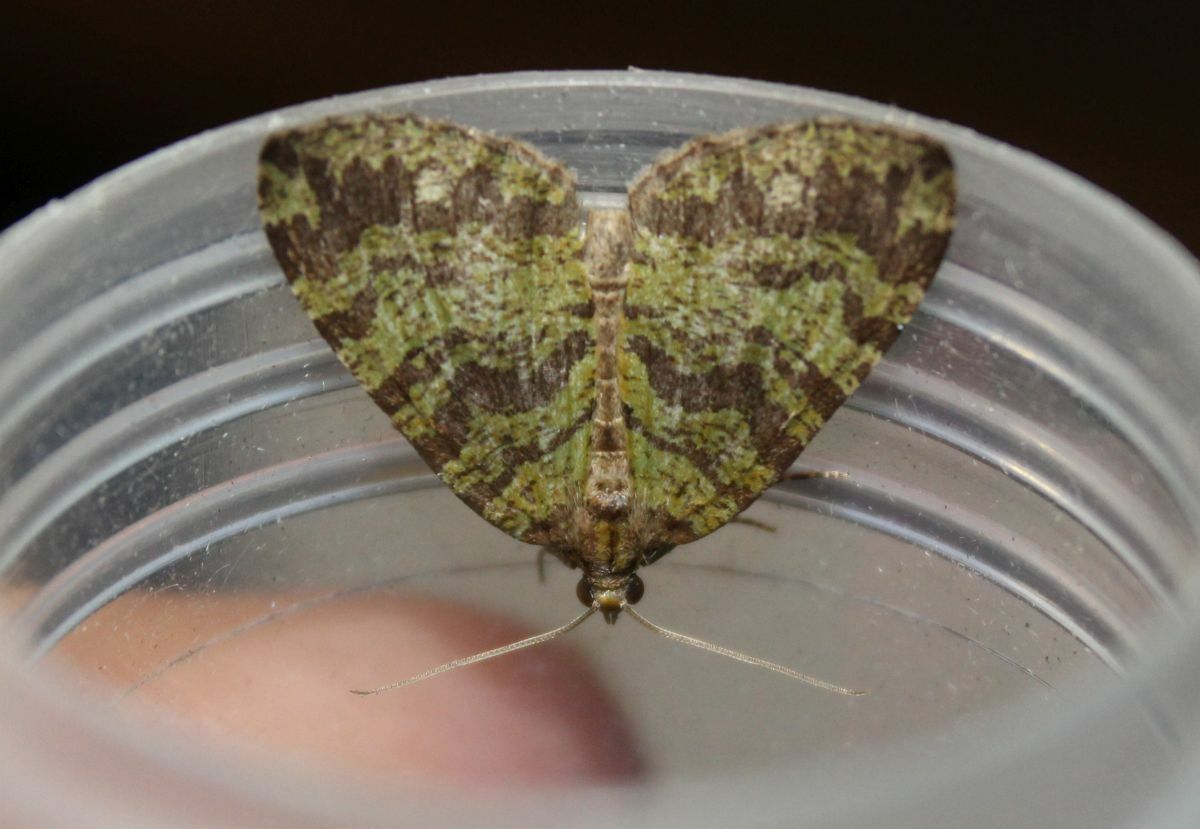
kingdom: Animalia
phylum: Arthropoda
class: Insecta
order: Lepidoptera
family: Geometridae
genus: Hydriomena
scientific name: Hydriomena furcata
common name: July highflyer
